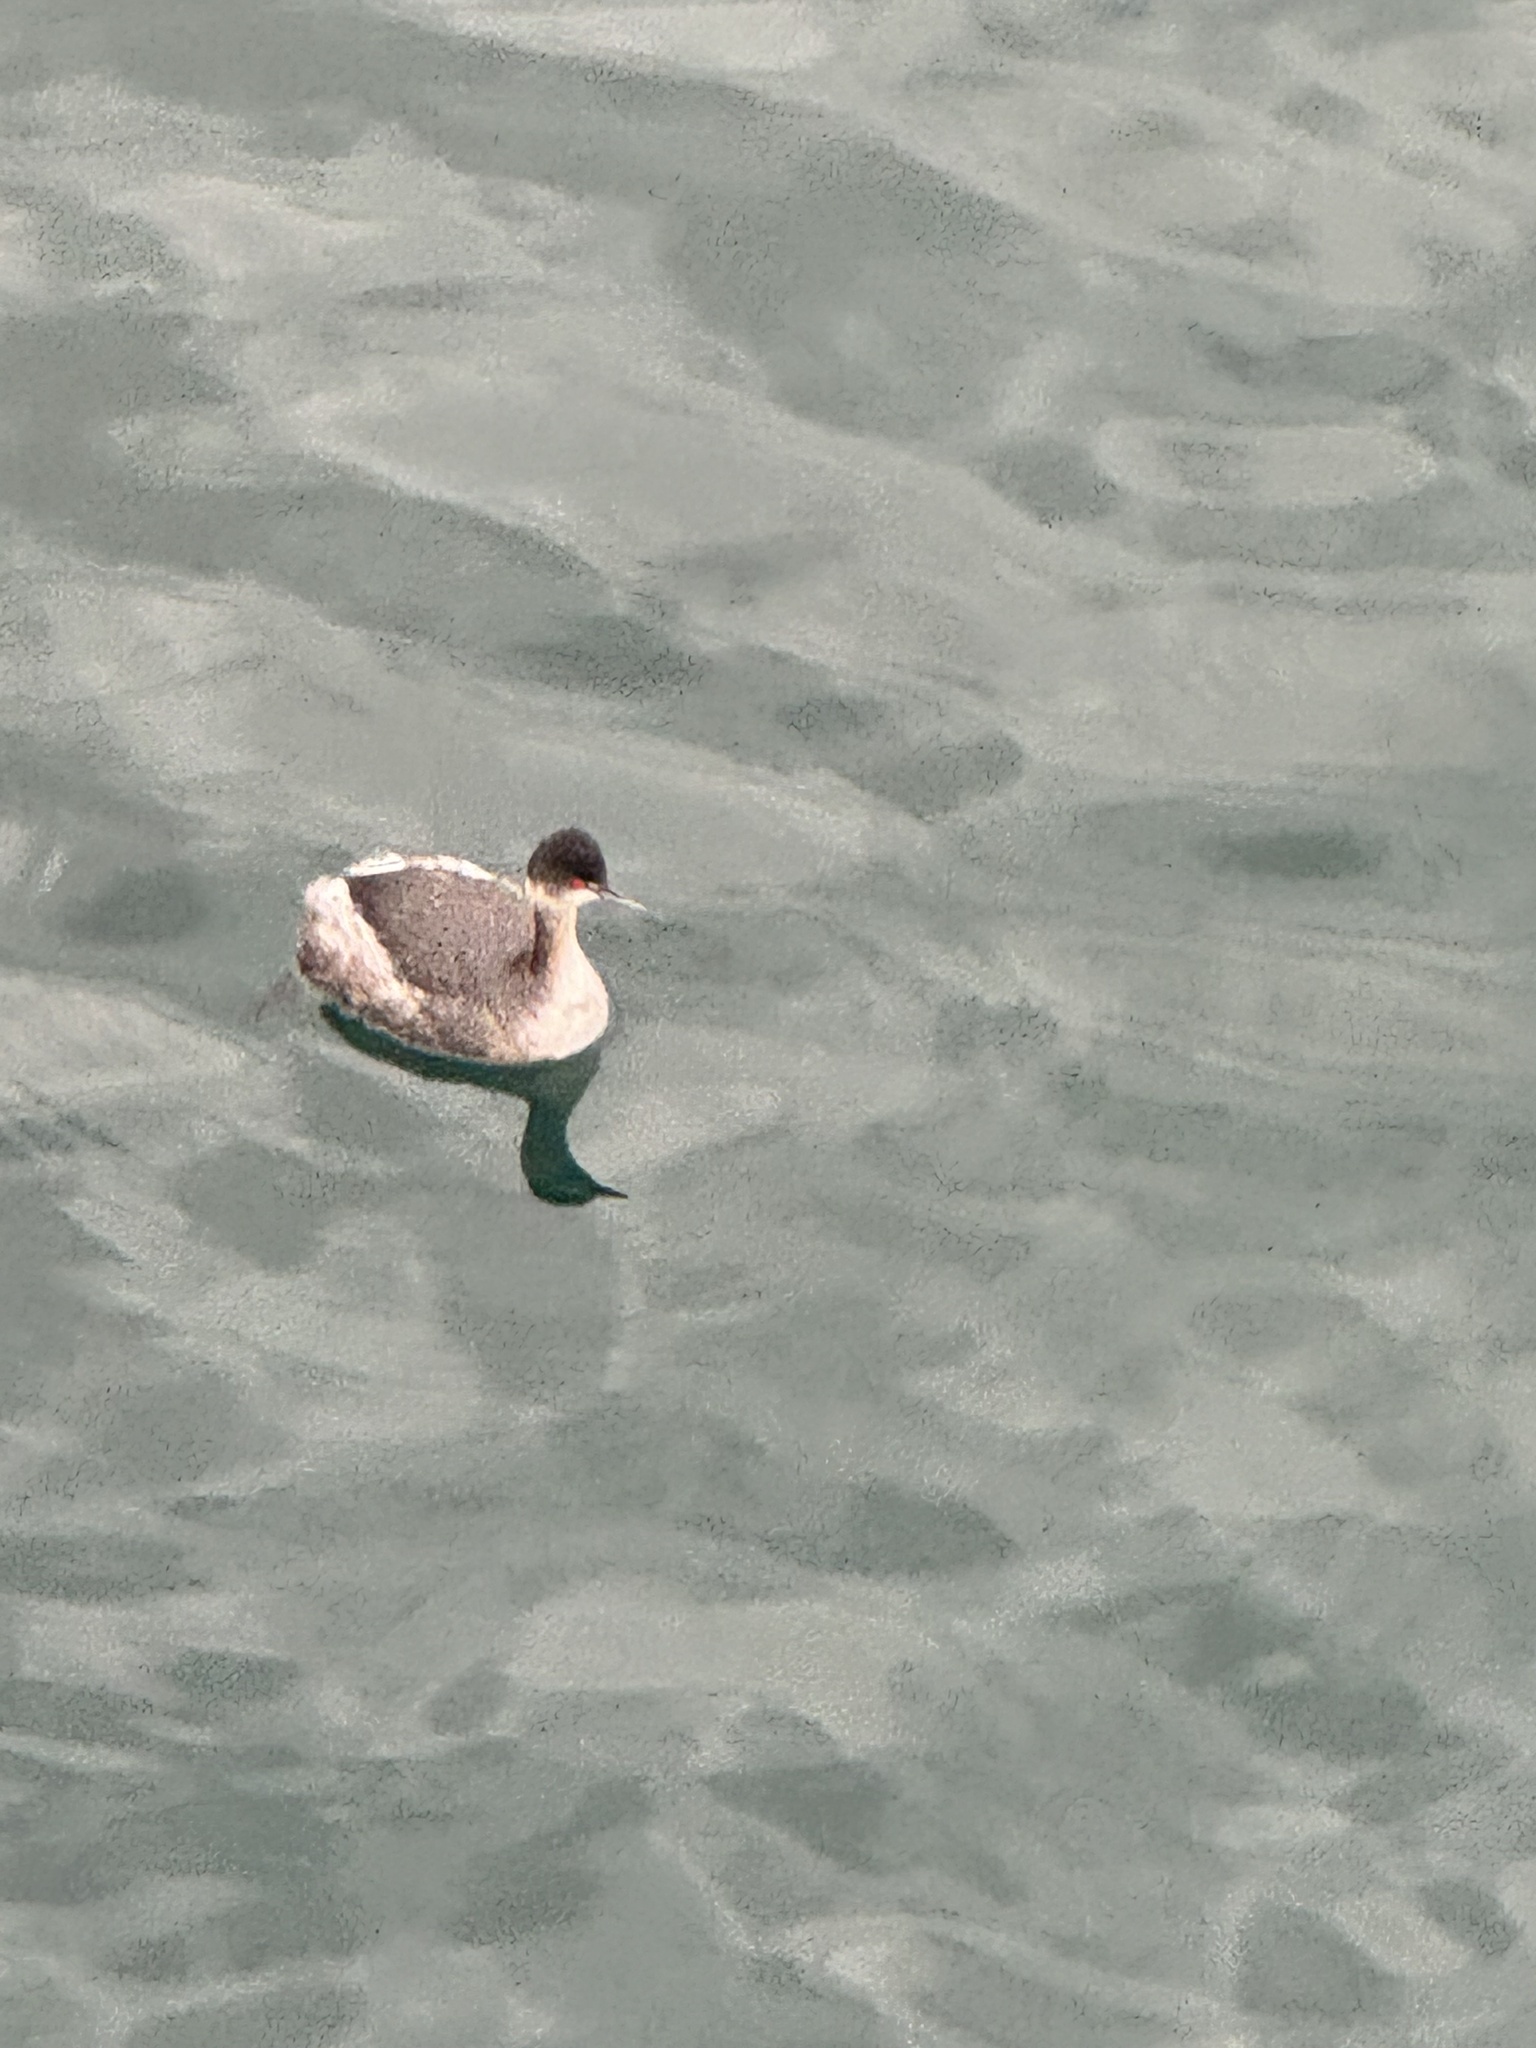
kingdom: Animalia
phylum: Chordata
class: Aves
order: Podicipediformes
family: Podicipedidae
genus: Podiceps
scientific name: Podiceps nigricollis
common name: Black-necked grebe
